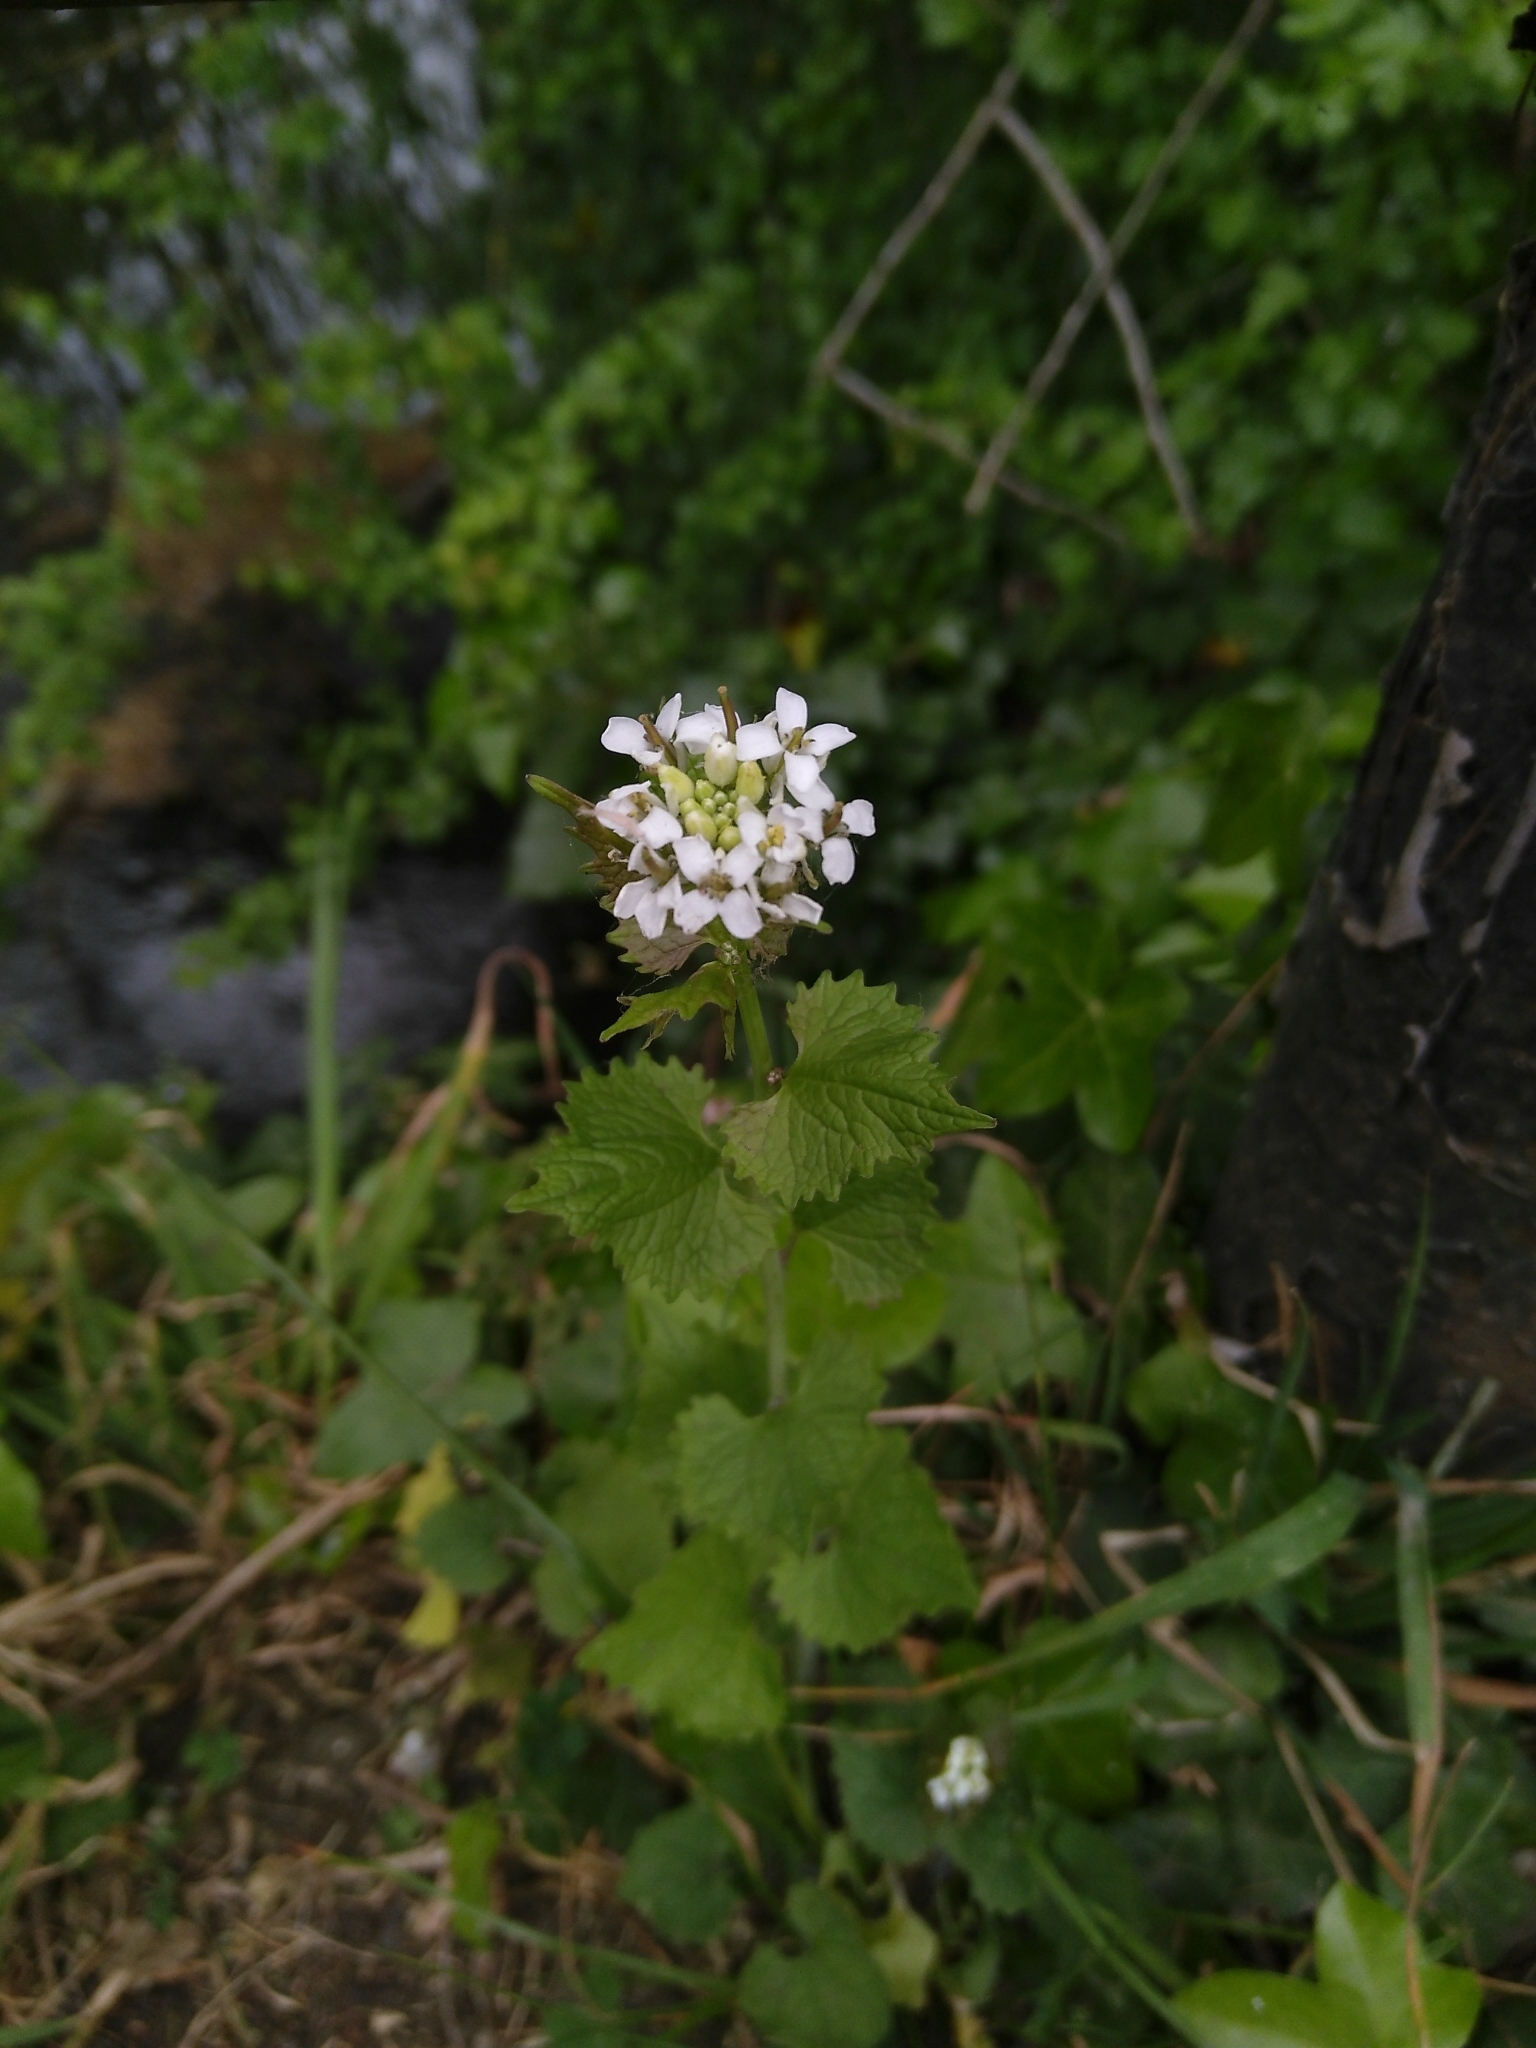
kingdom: Plantae
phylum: Tracheophyta
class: Magnoliopsida
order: Brassicales
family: Brassicaceae
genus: Alliaria
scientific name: Alliaria petiolata
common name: Garlic mustard
